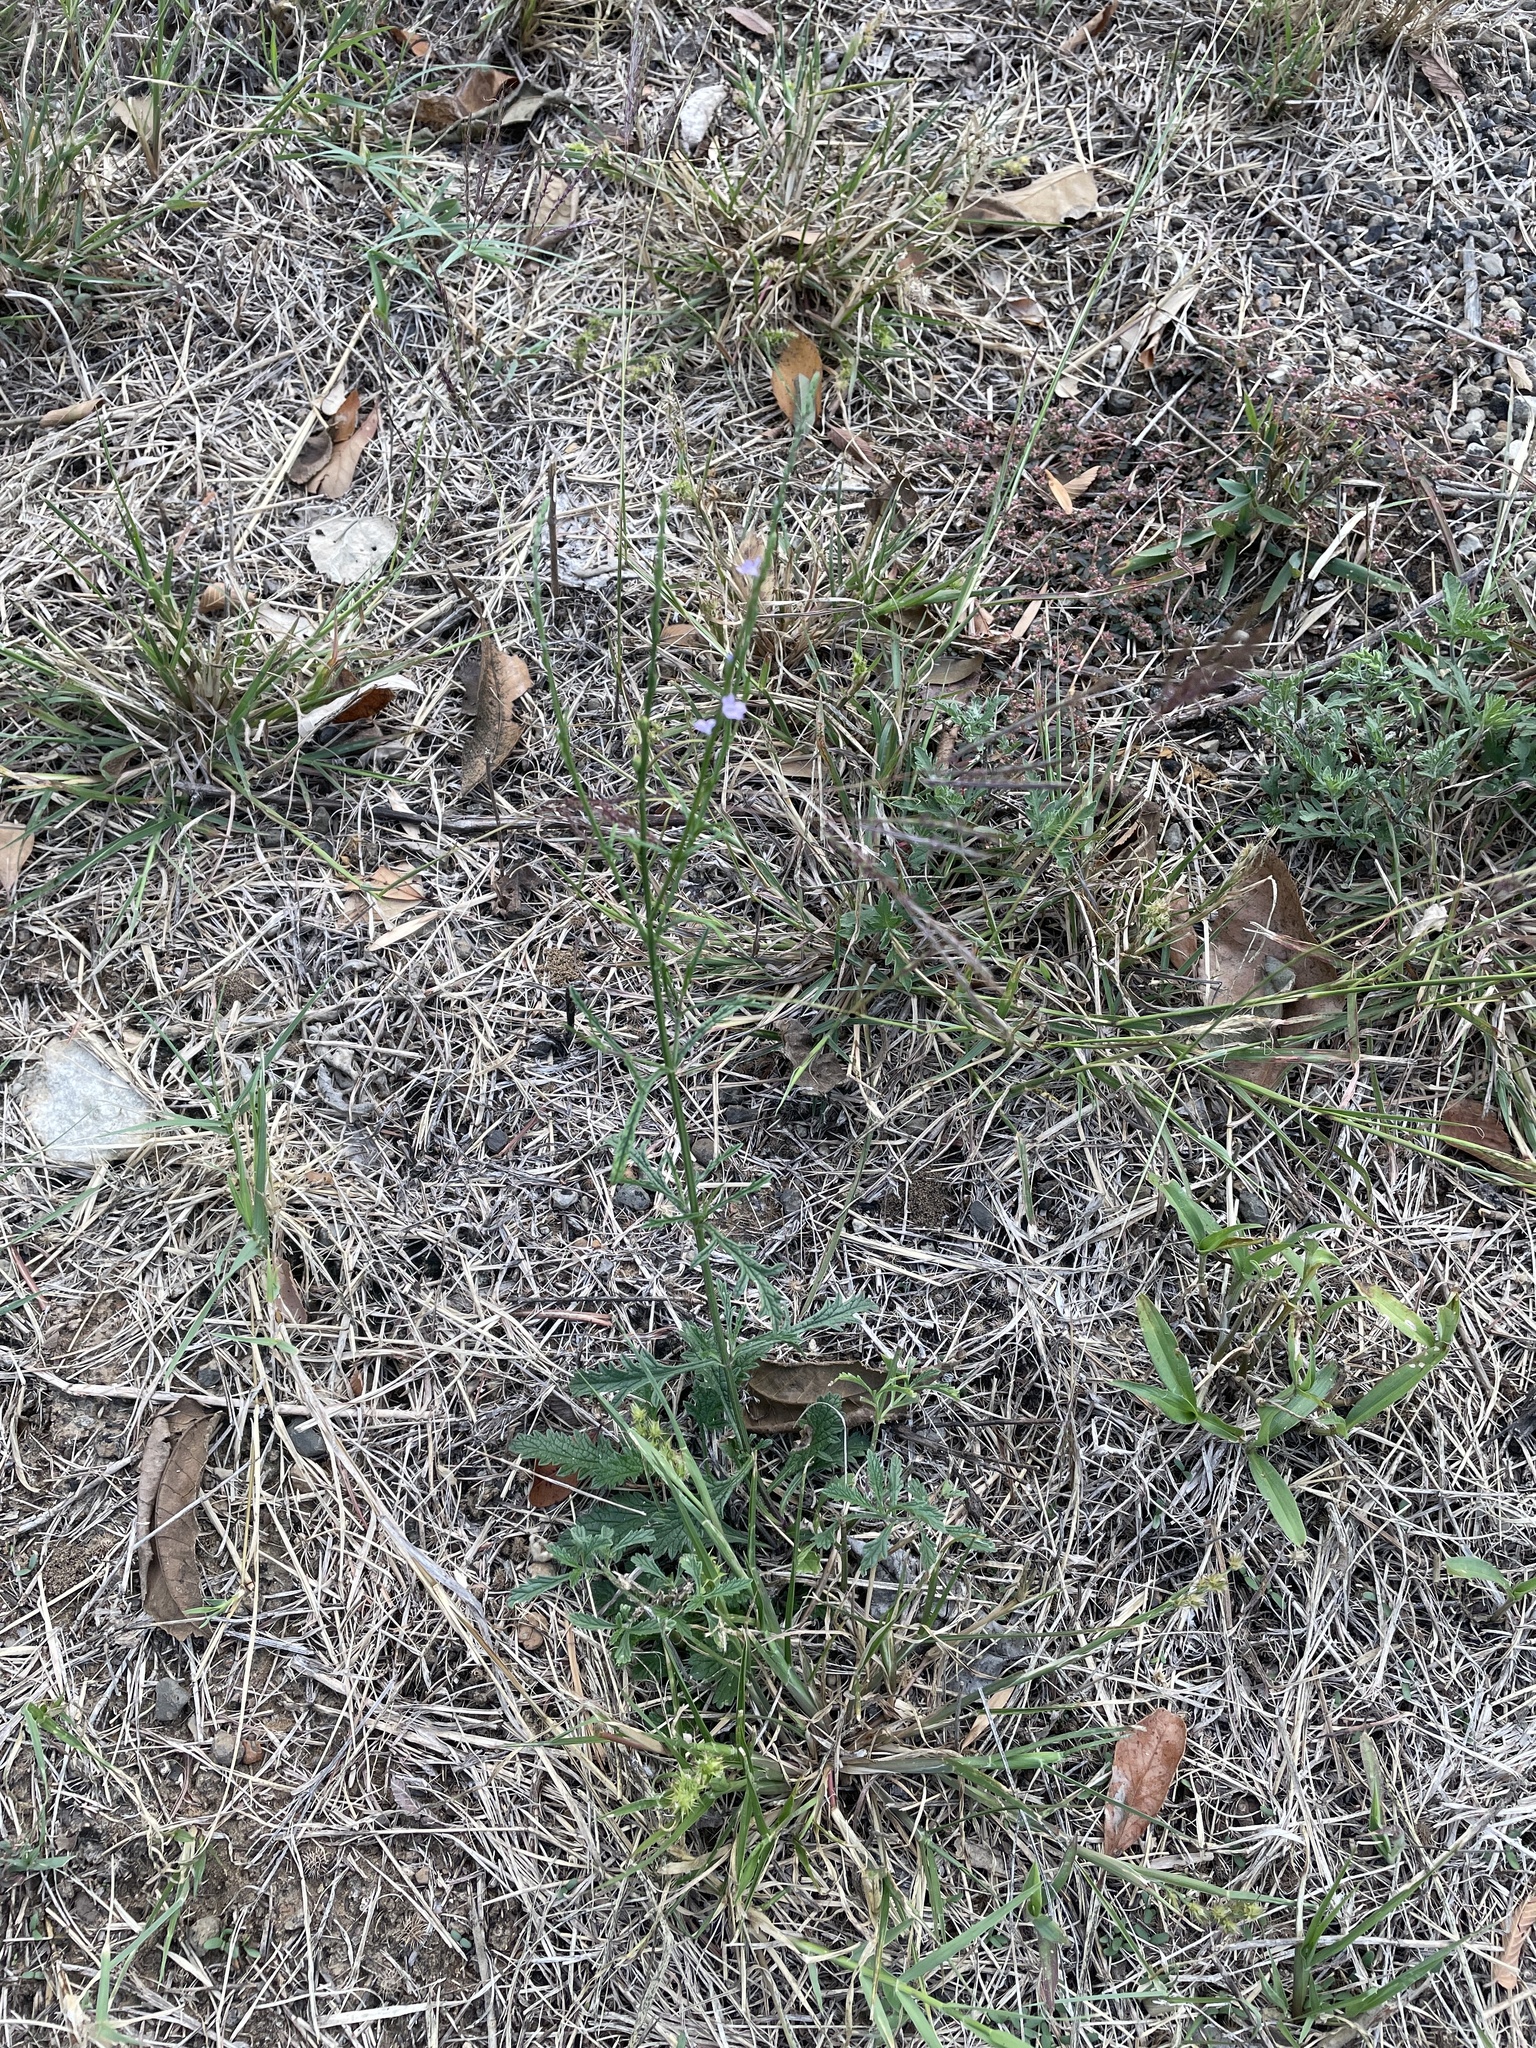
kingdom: Plantae
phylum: Tracheophyta
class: Magnoliopsida
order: Lamiales
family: Verbenaceae
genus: Verbena
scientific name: Verbena halei
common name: Texas vervain
